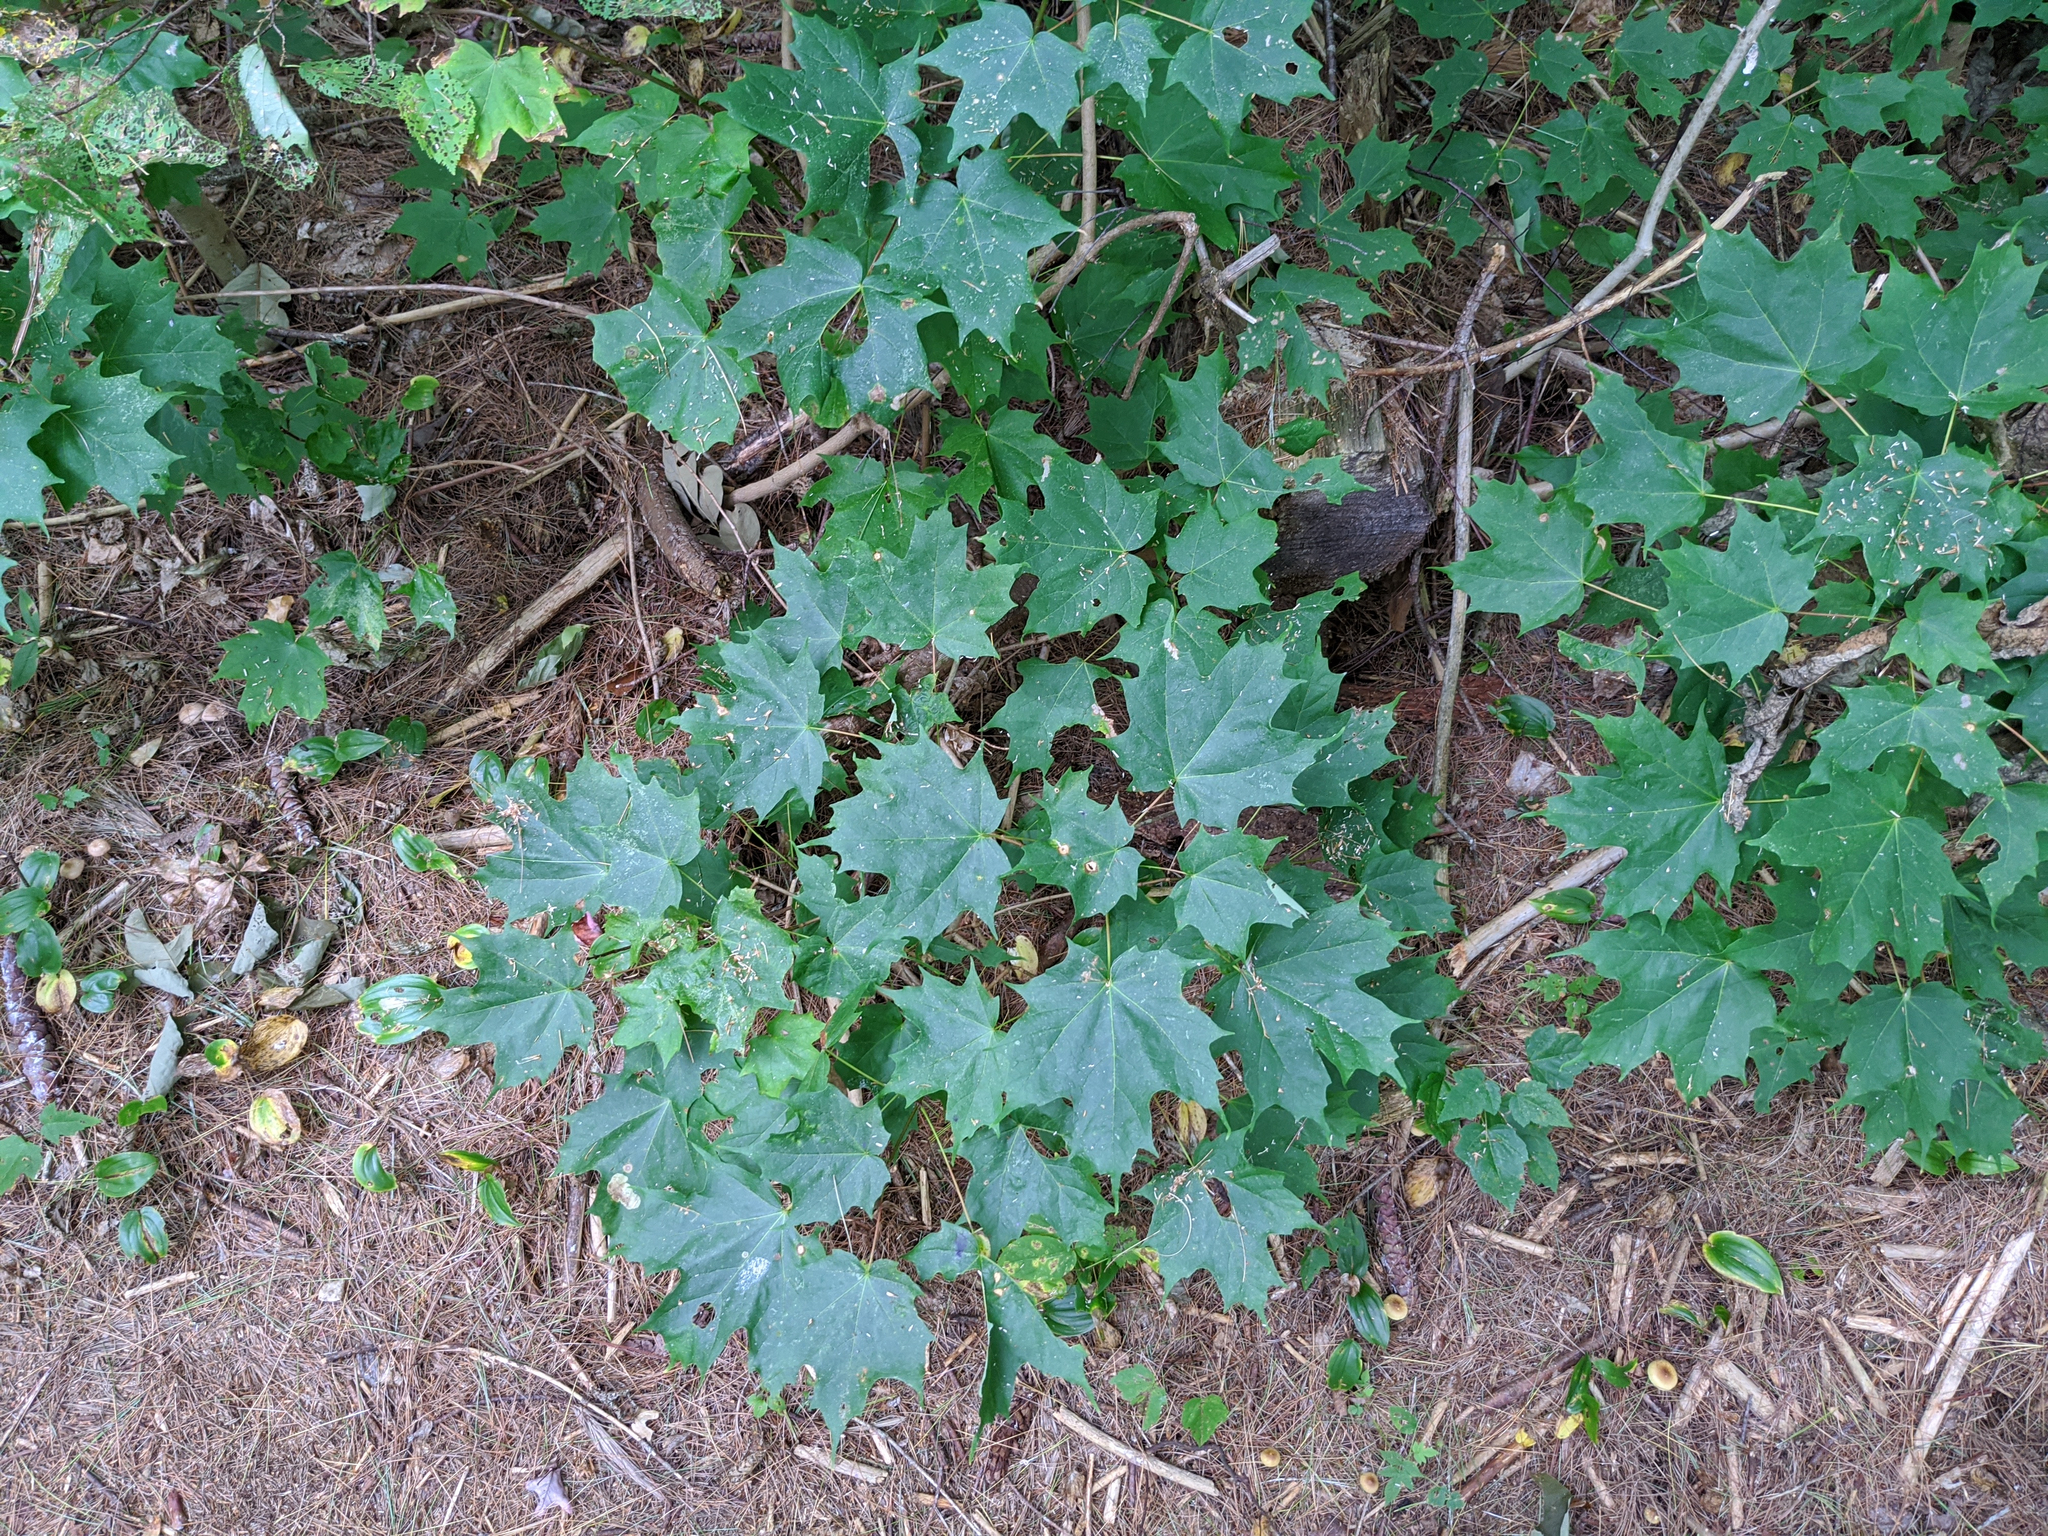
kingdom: Plantae
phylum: Tracheophyta
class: Magnoliopsida
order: Sapindales
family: Sapindaceae
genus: Acer
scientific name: Acer saccharum
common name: Sugar maple
